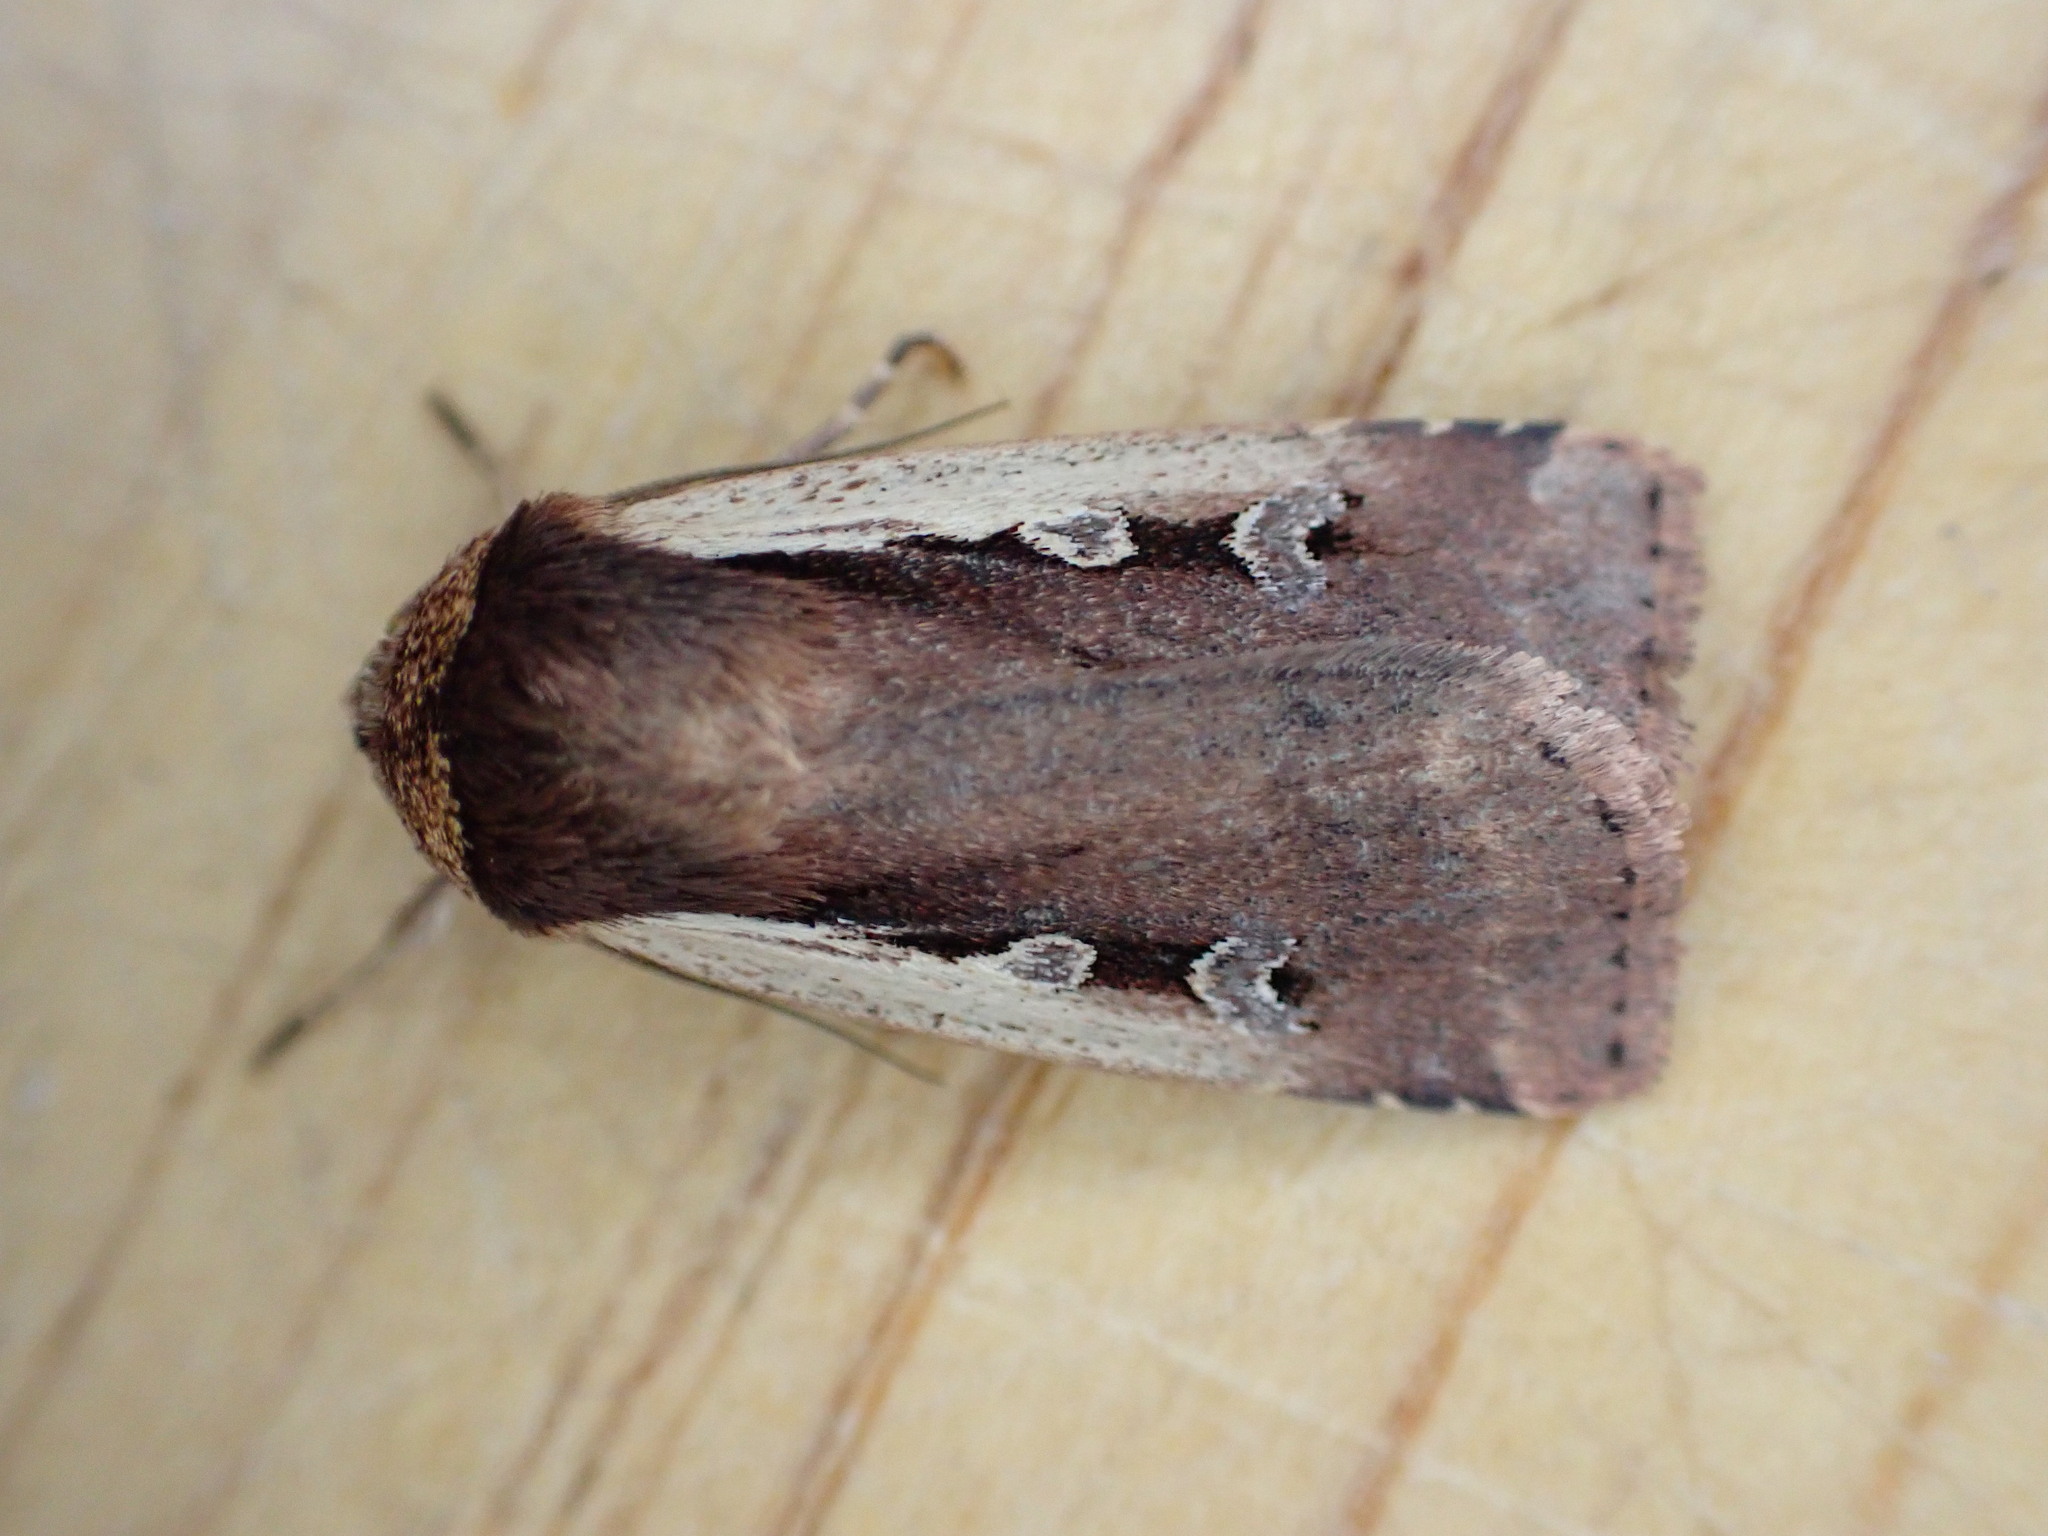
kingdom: Animalia
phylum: Arthropoda
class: Insecta
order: Lepidoptera
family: Noctuidae
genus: Ochropleura
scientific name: Ochropleura plecta
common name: Flame shoulder
